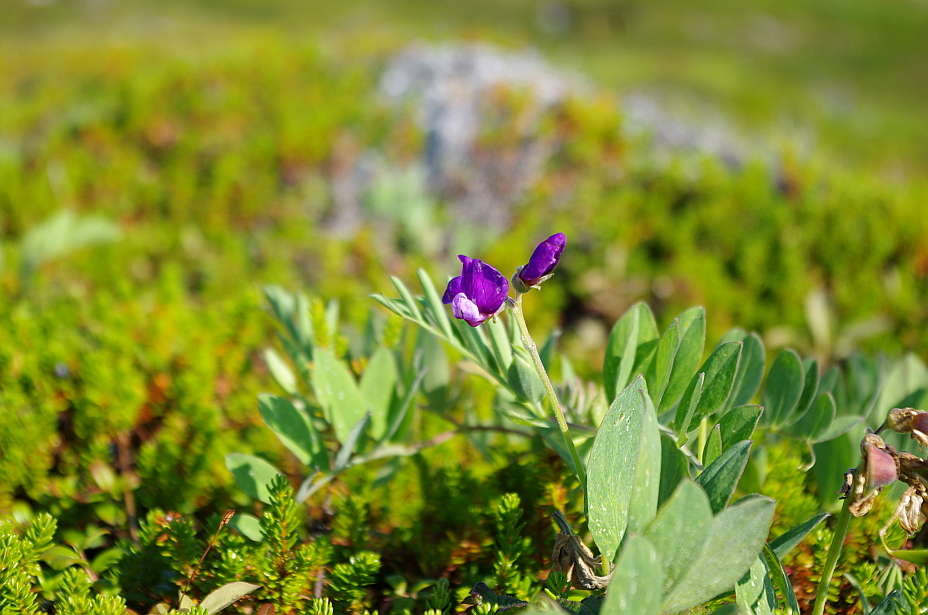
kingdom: Plantae
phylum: Tracheophyta
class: Magnoliopsida
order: Fabales
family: Fabaceae
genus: Lathyrus
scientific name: Lathyrus japonicus
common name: Sea pea
